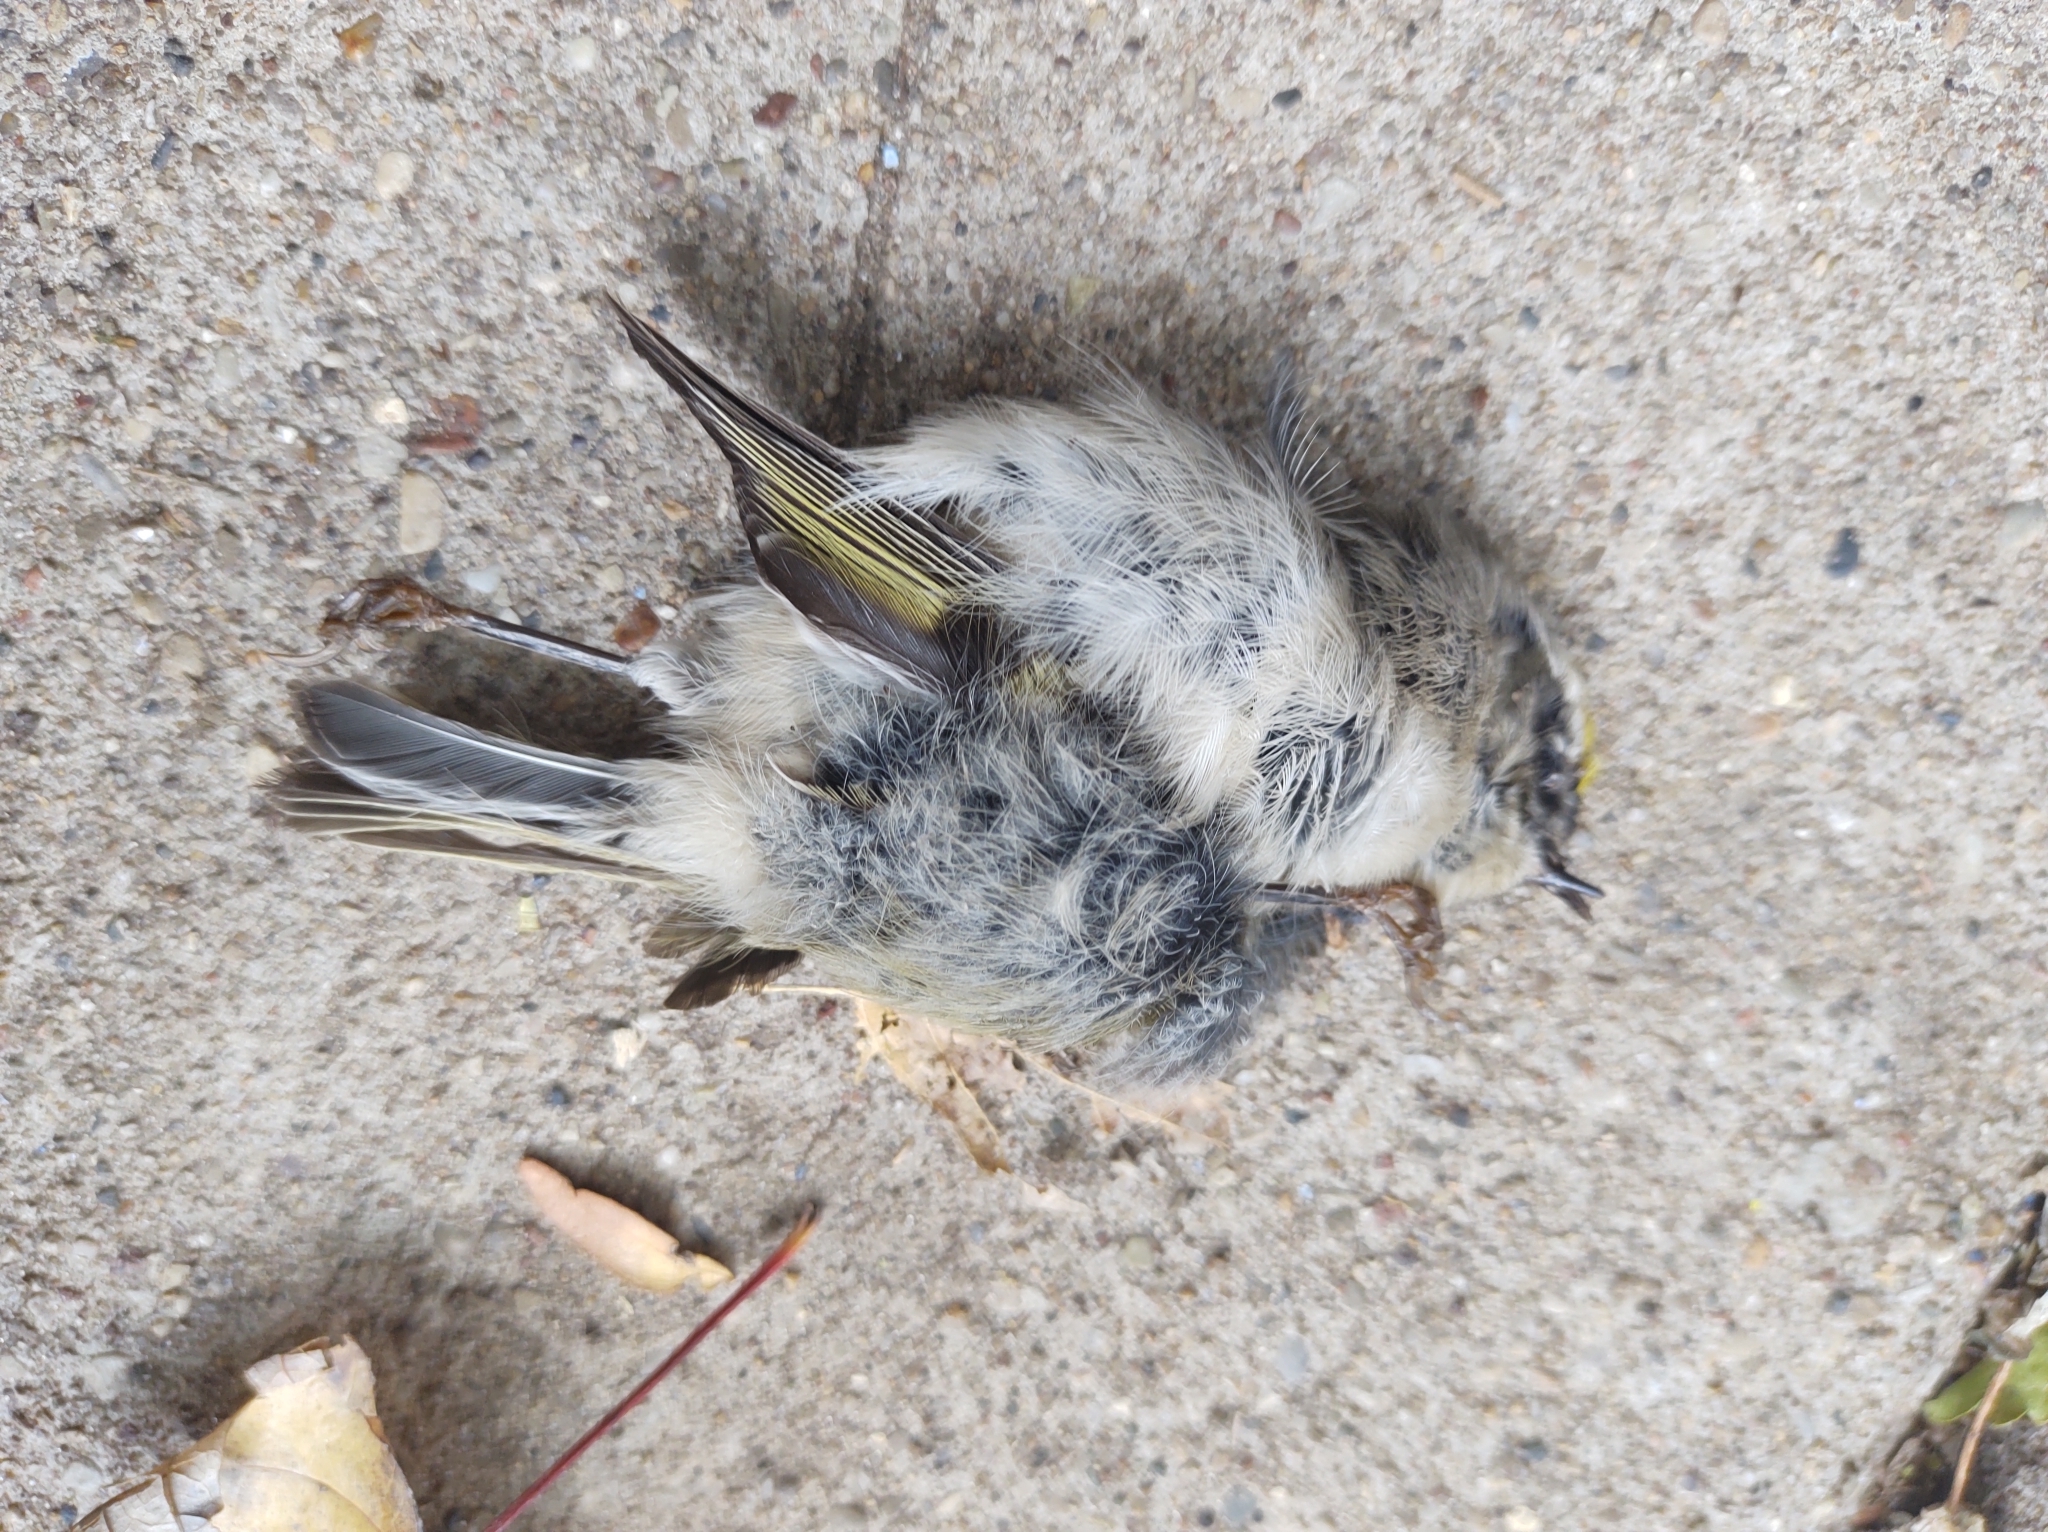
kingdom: Animalia
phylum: Chordata
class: Aves
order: Passeriformes
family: Regulidae
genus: Regulus
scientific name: Regulus satrapa
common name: Golden-crowned kinglet
